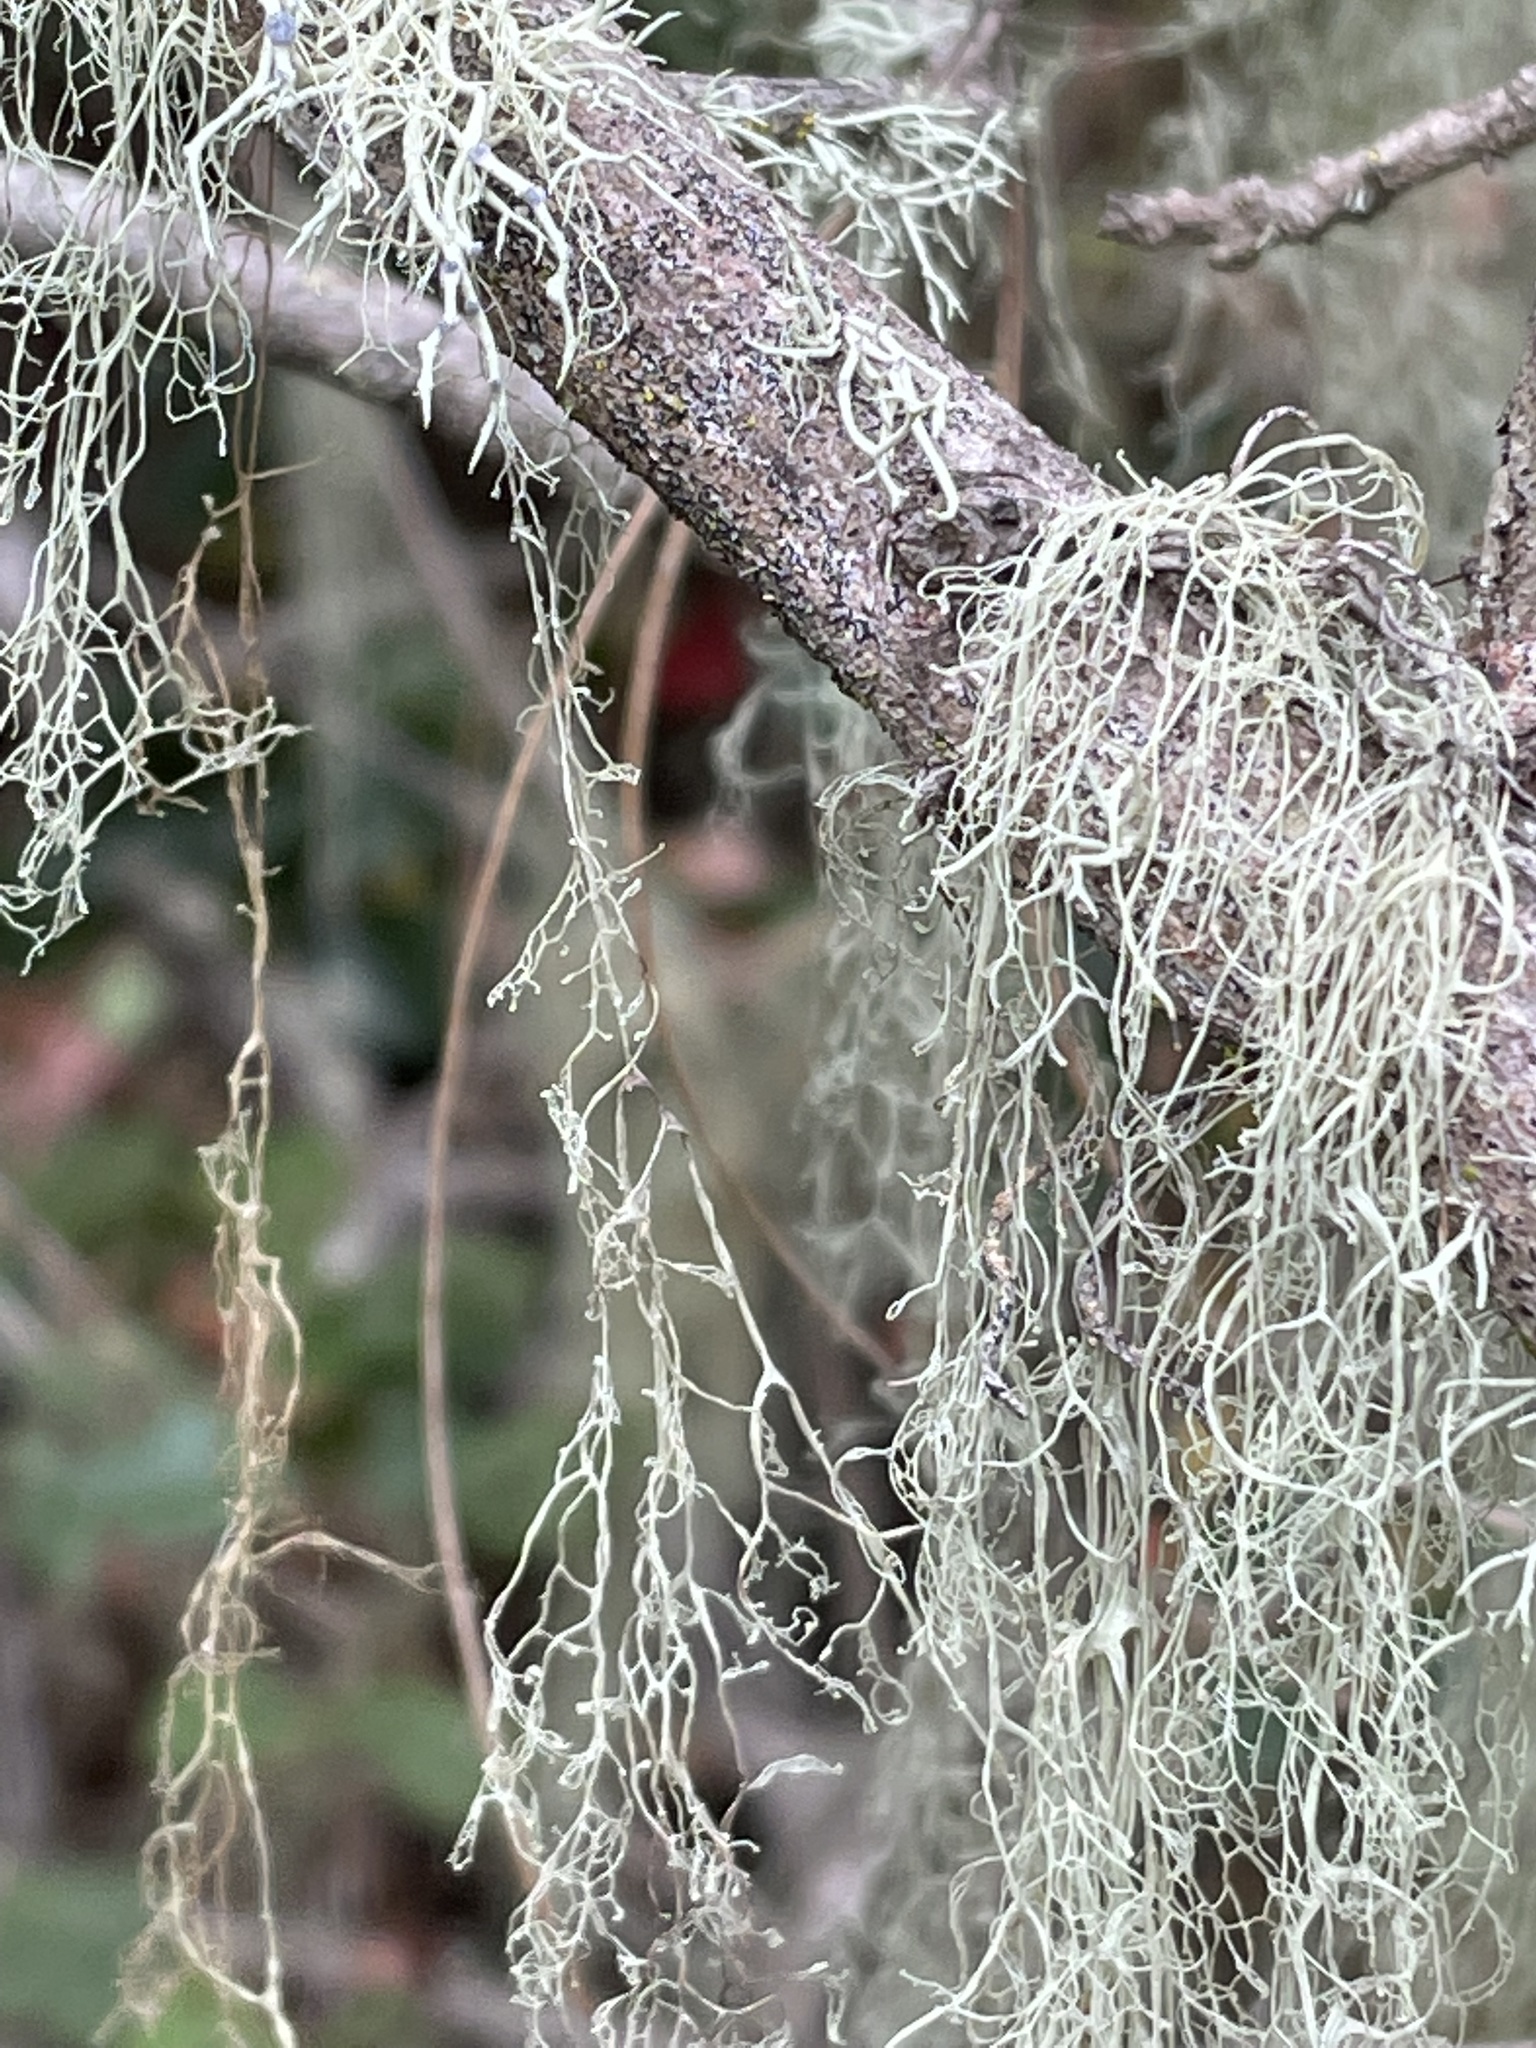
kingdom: Fungi
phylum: Ascomycota
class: Lecanoromycetes
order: Lecanorales
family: Ramalinaceae
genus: Ramalina
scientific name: Ramalina menziesii
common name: Lace lichen
